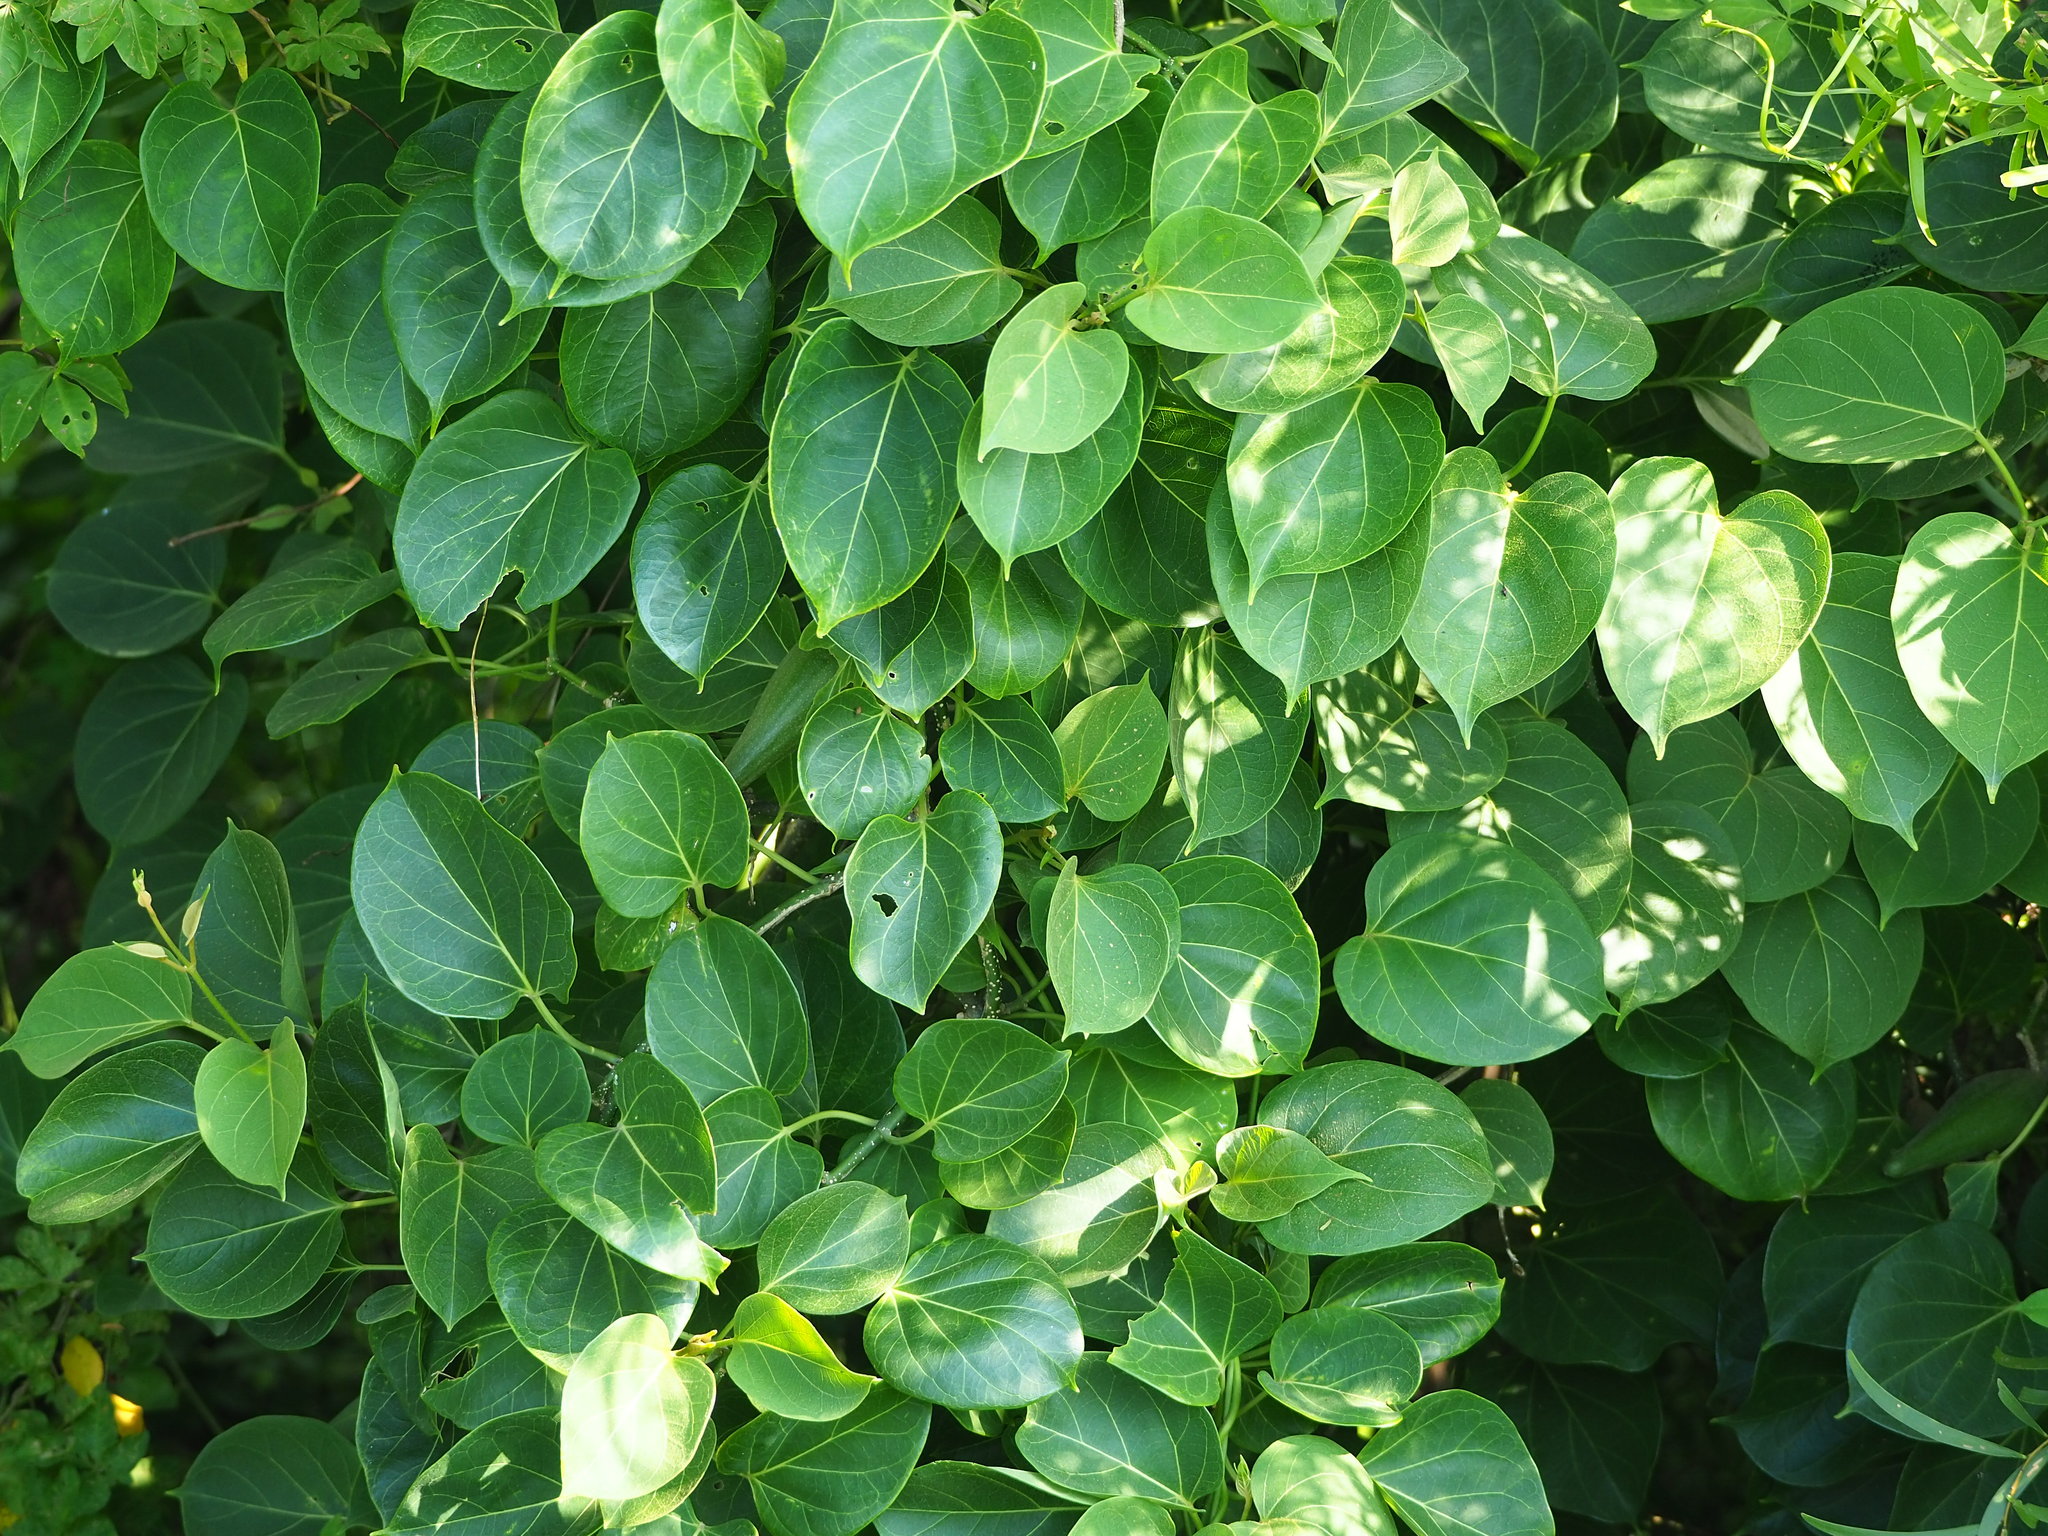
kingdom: Plantae
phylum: Tracheophyta
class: Magnoliopsida
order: Gentianales
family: Apocynaceae
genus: Stephanotis
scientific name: Stephanotis volubilis
